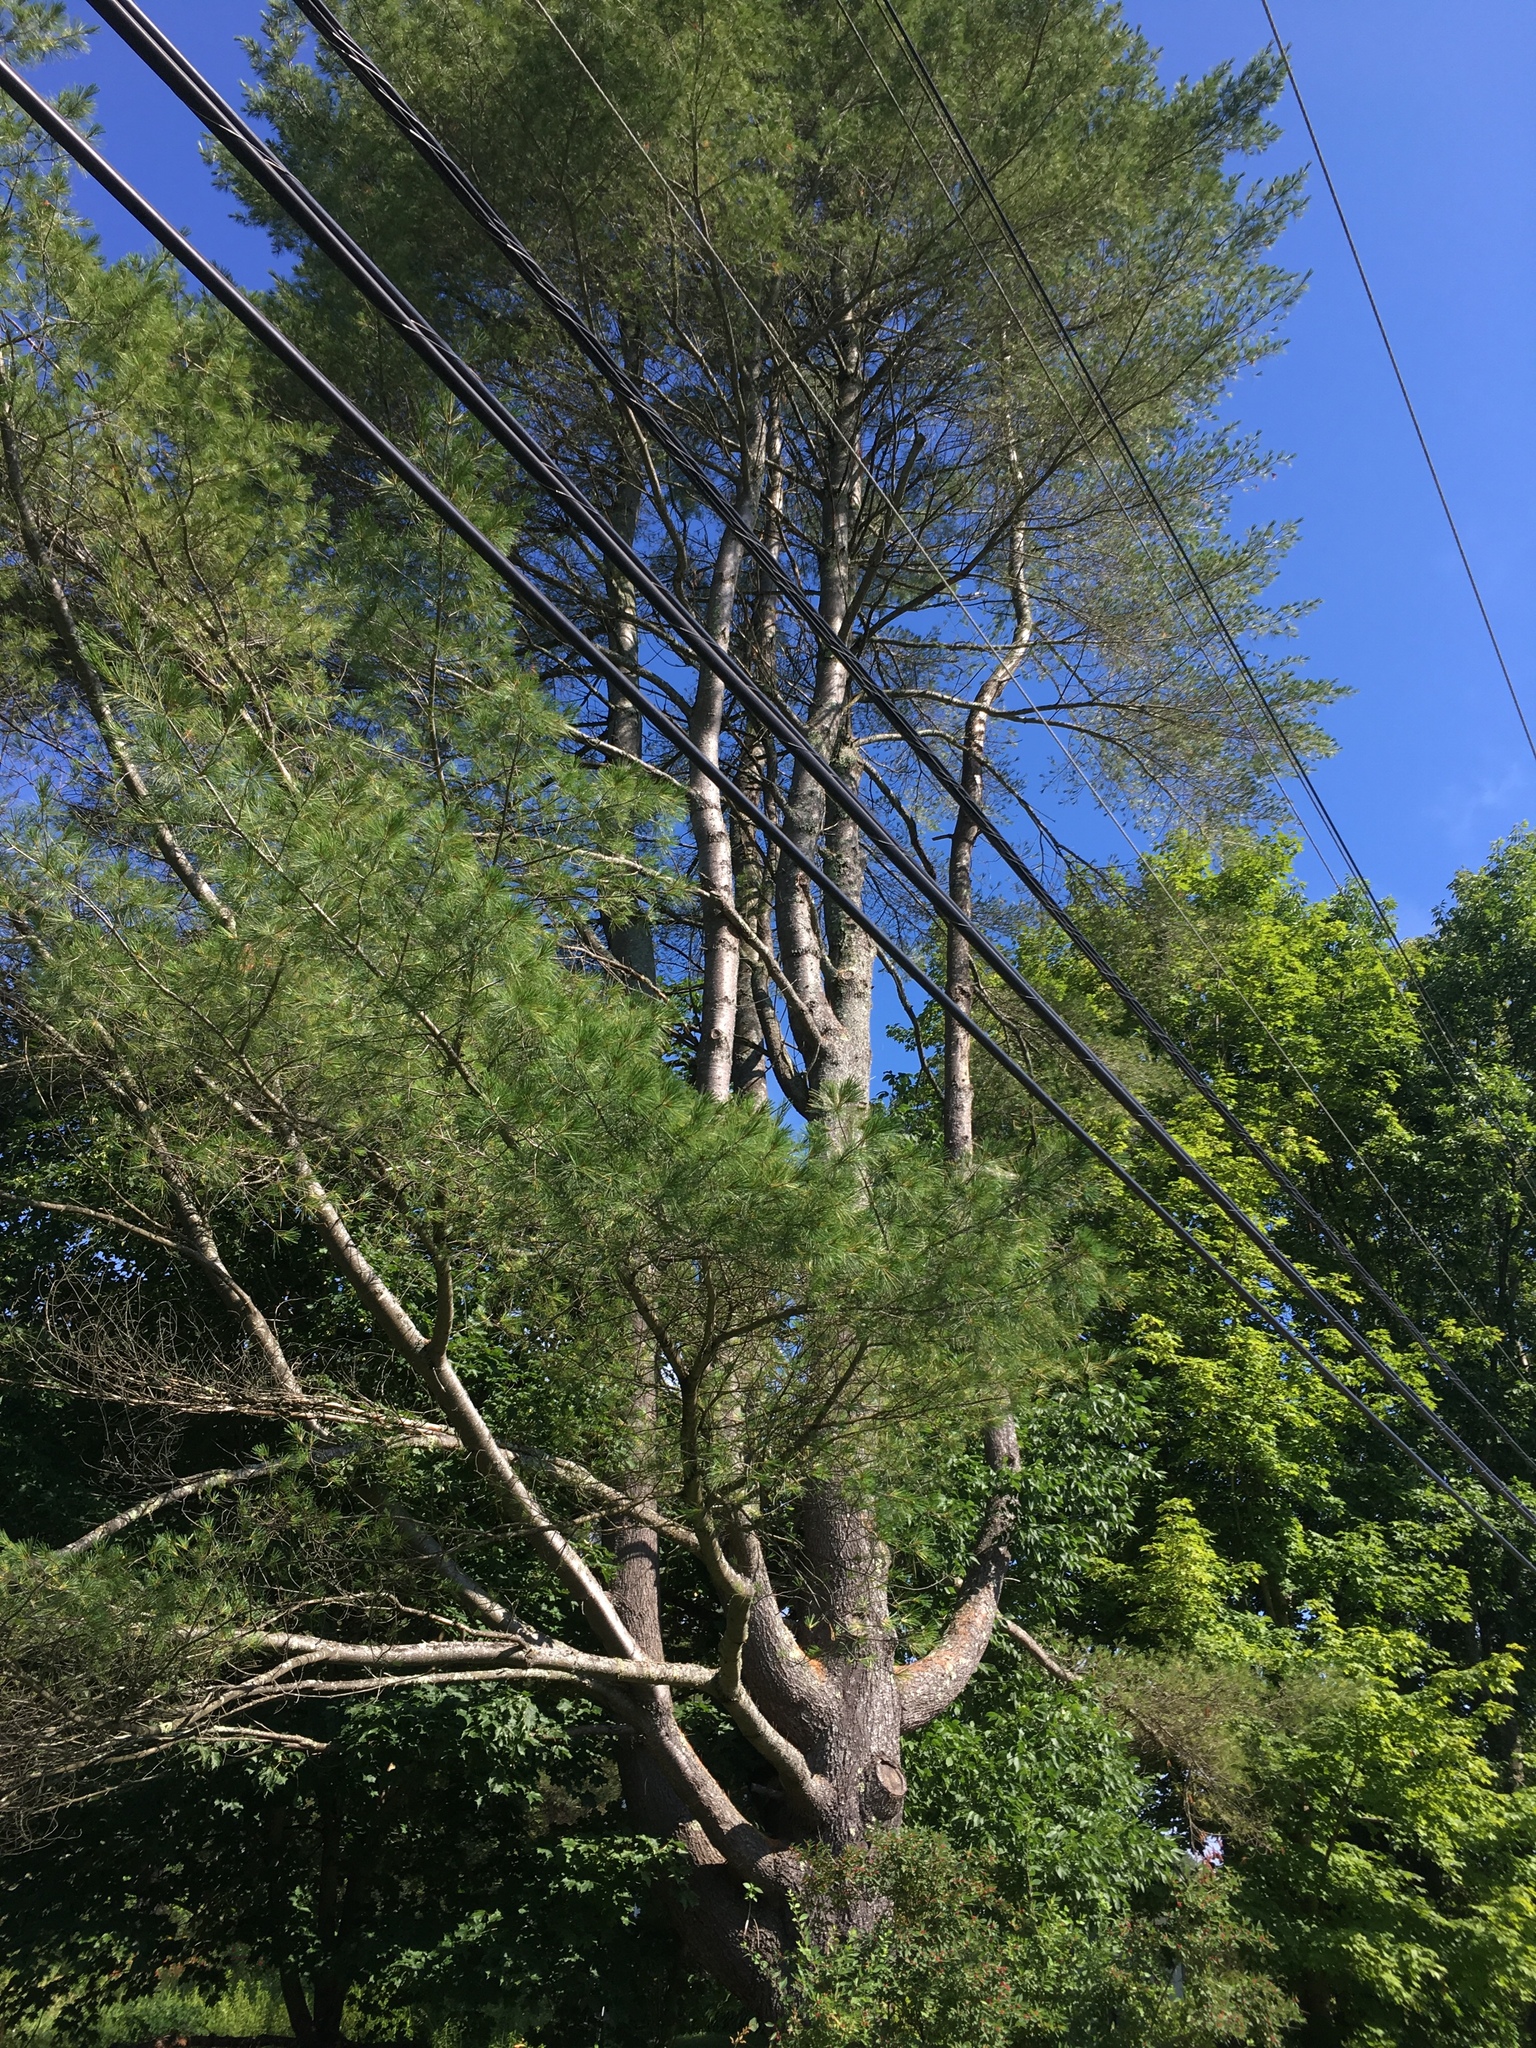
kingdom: Plantae
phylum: Tracheophyta
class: Pinopsida
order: Pinales
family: Pinaceae
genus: Pinus
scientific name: Pinus strobus
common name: Weymouth pine
